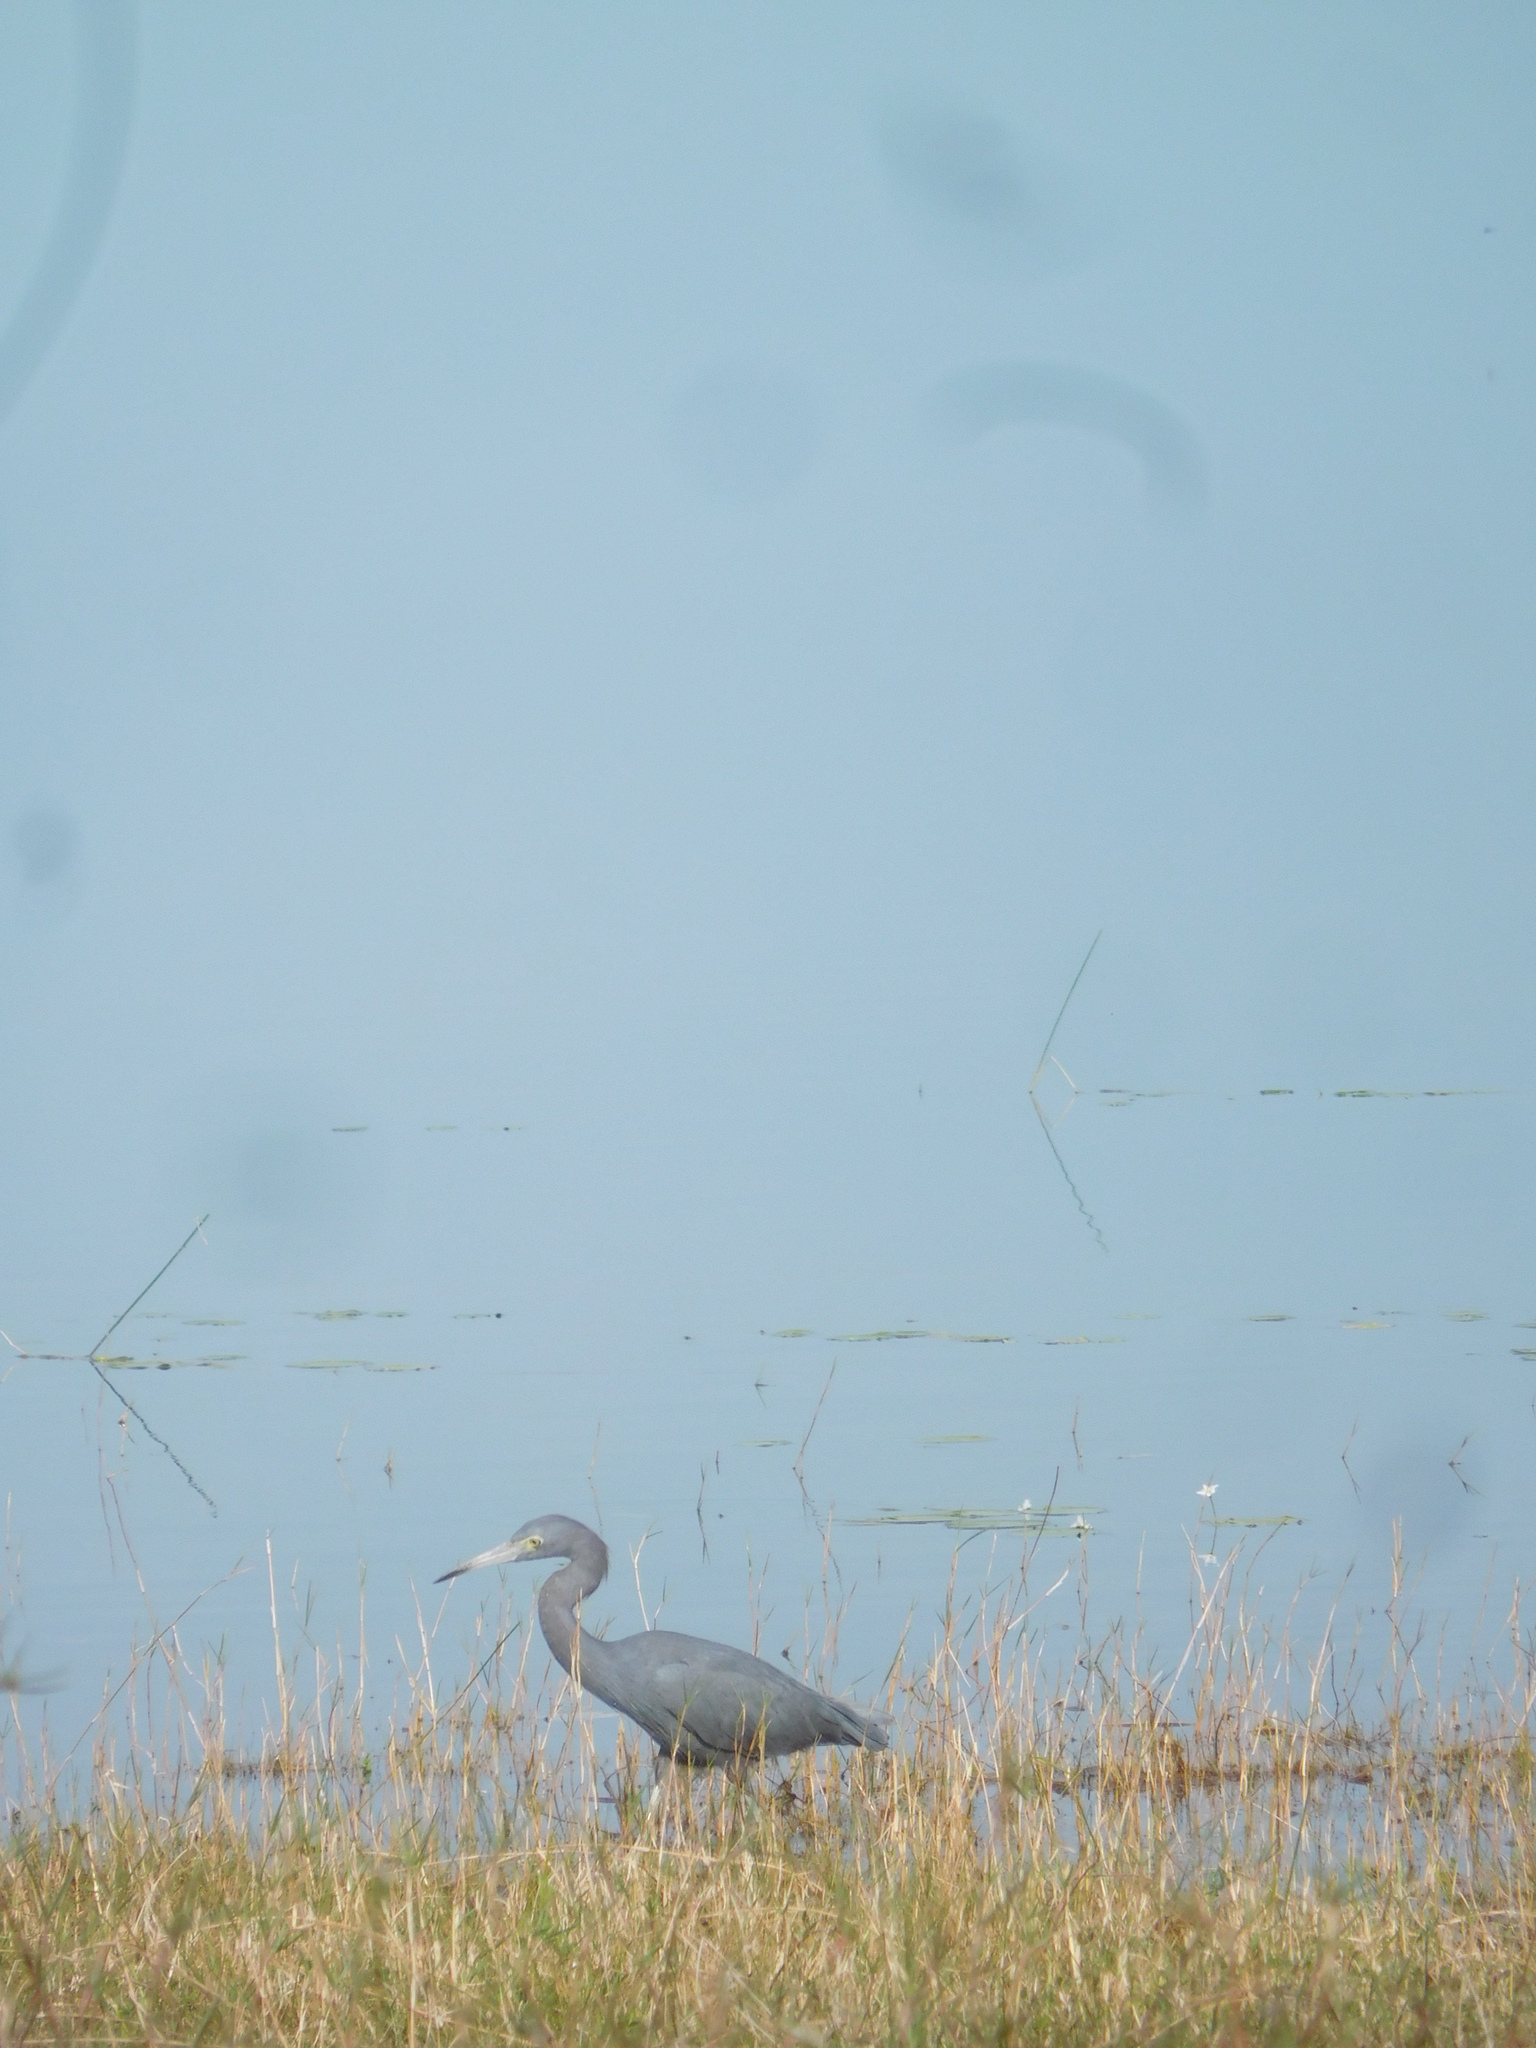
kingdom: Animalia
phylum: Chordata
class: Aves
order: Pelecaniformes
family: Ardeidae
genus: Egretta
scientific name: Egretta caerulea
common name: Little blue heron
